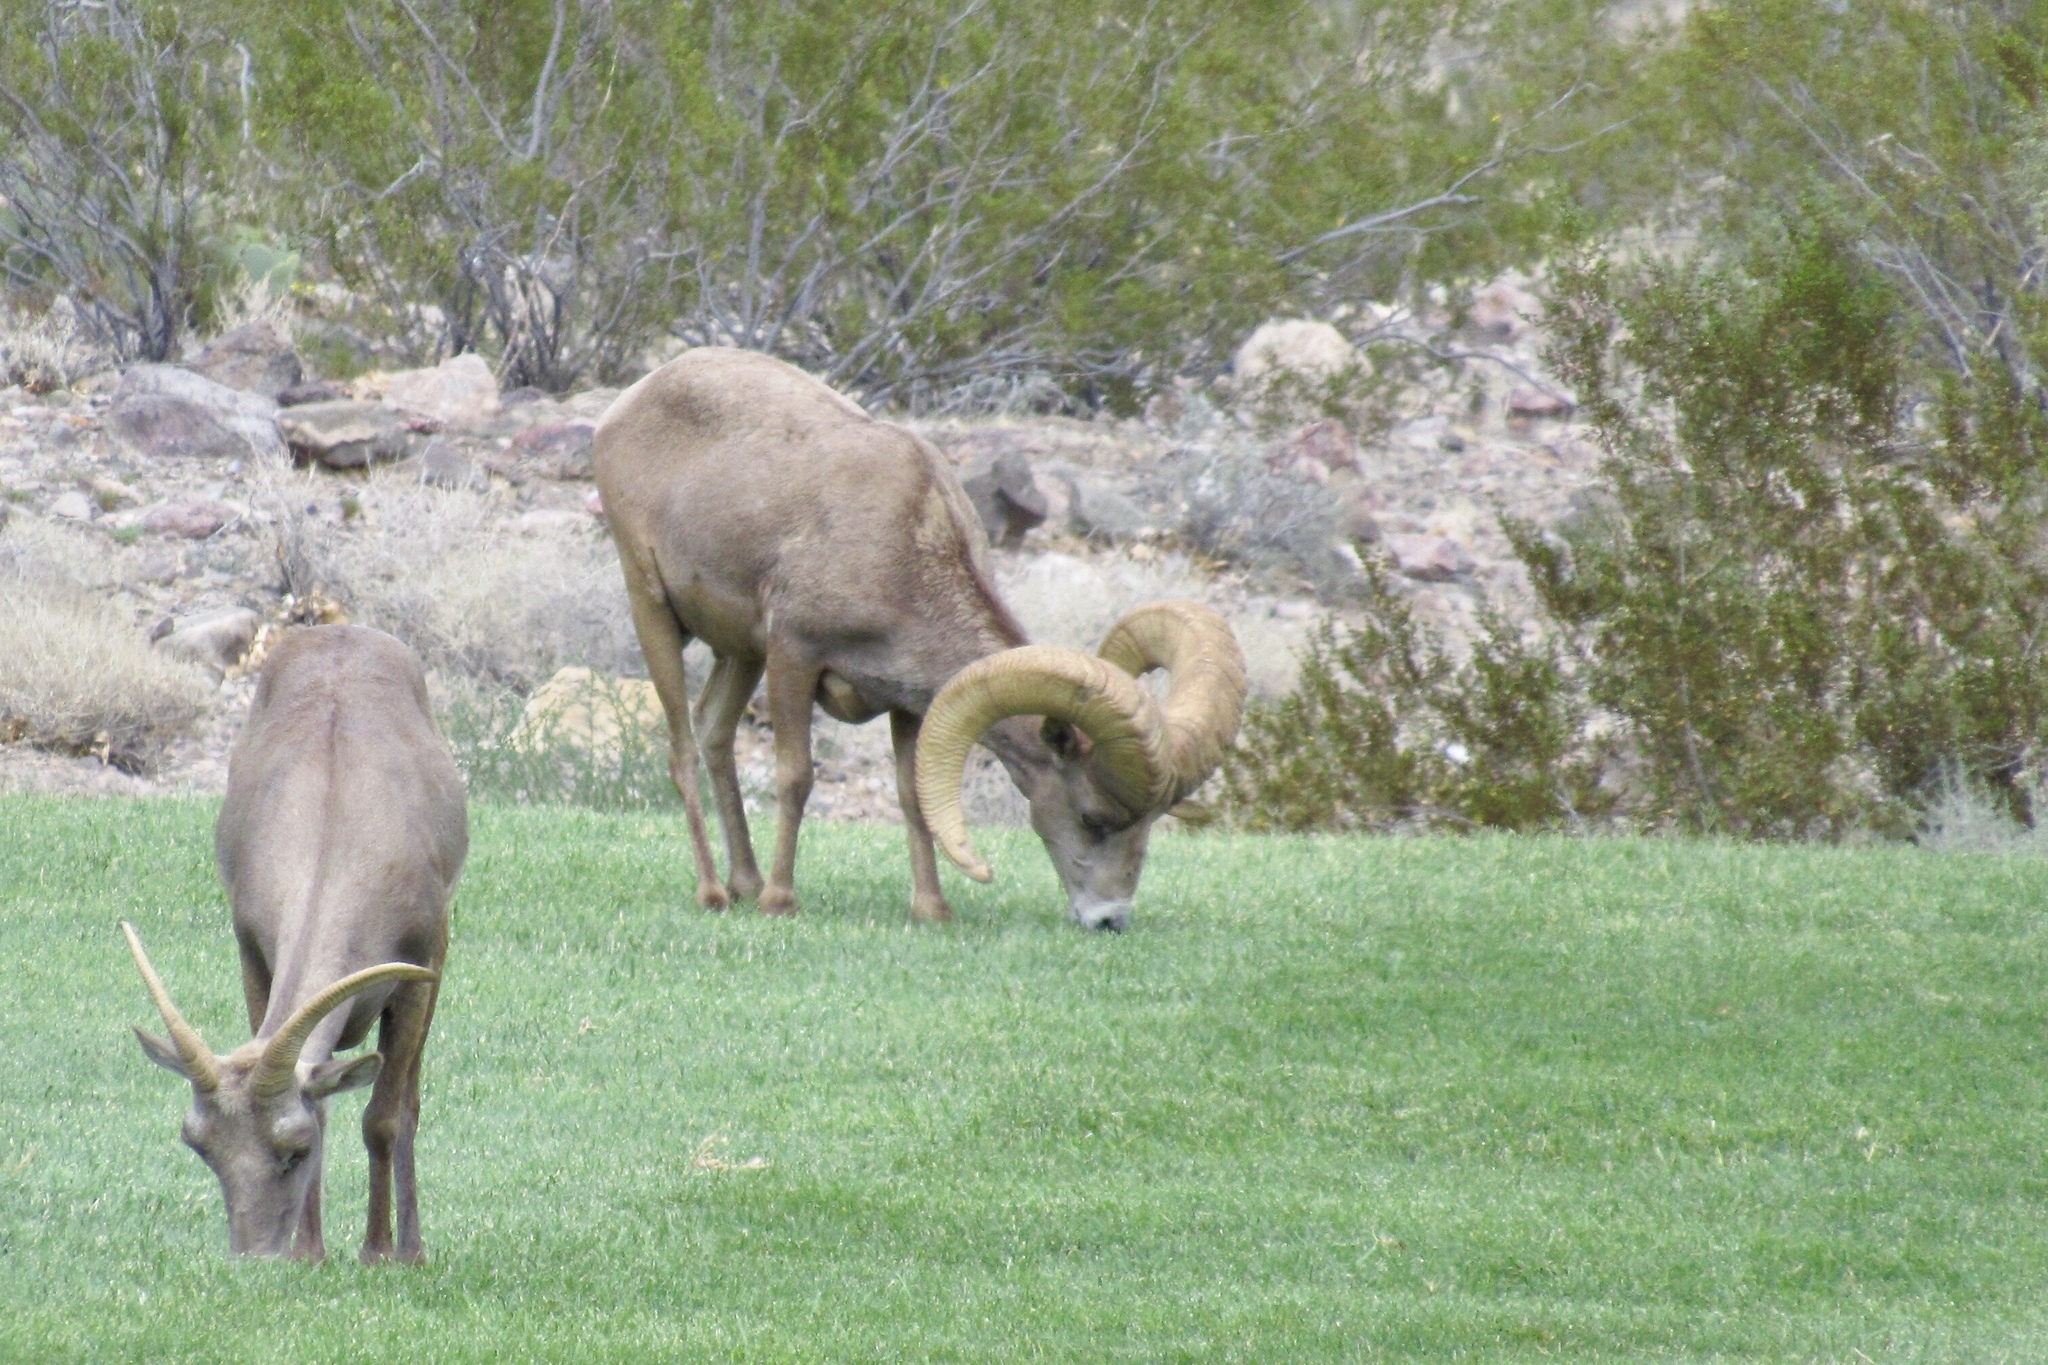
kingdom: Animalia
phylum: Chordata
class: Mammalia
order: Artiodactyla
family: Bovidae
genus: Ovis
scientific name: Ovis canadensis
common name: Bighorn sheep
